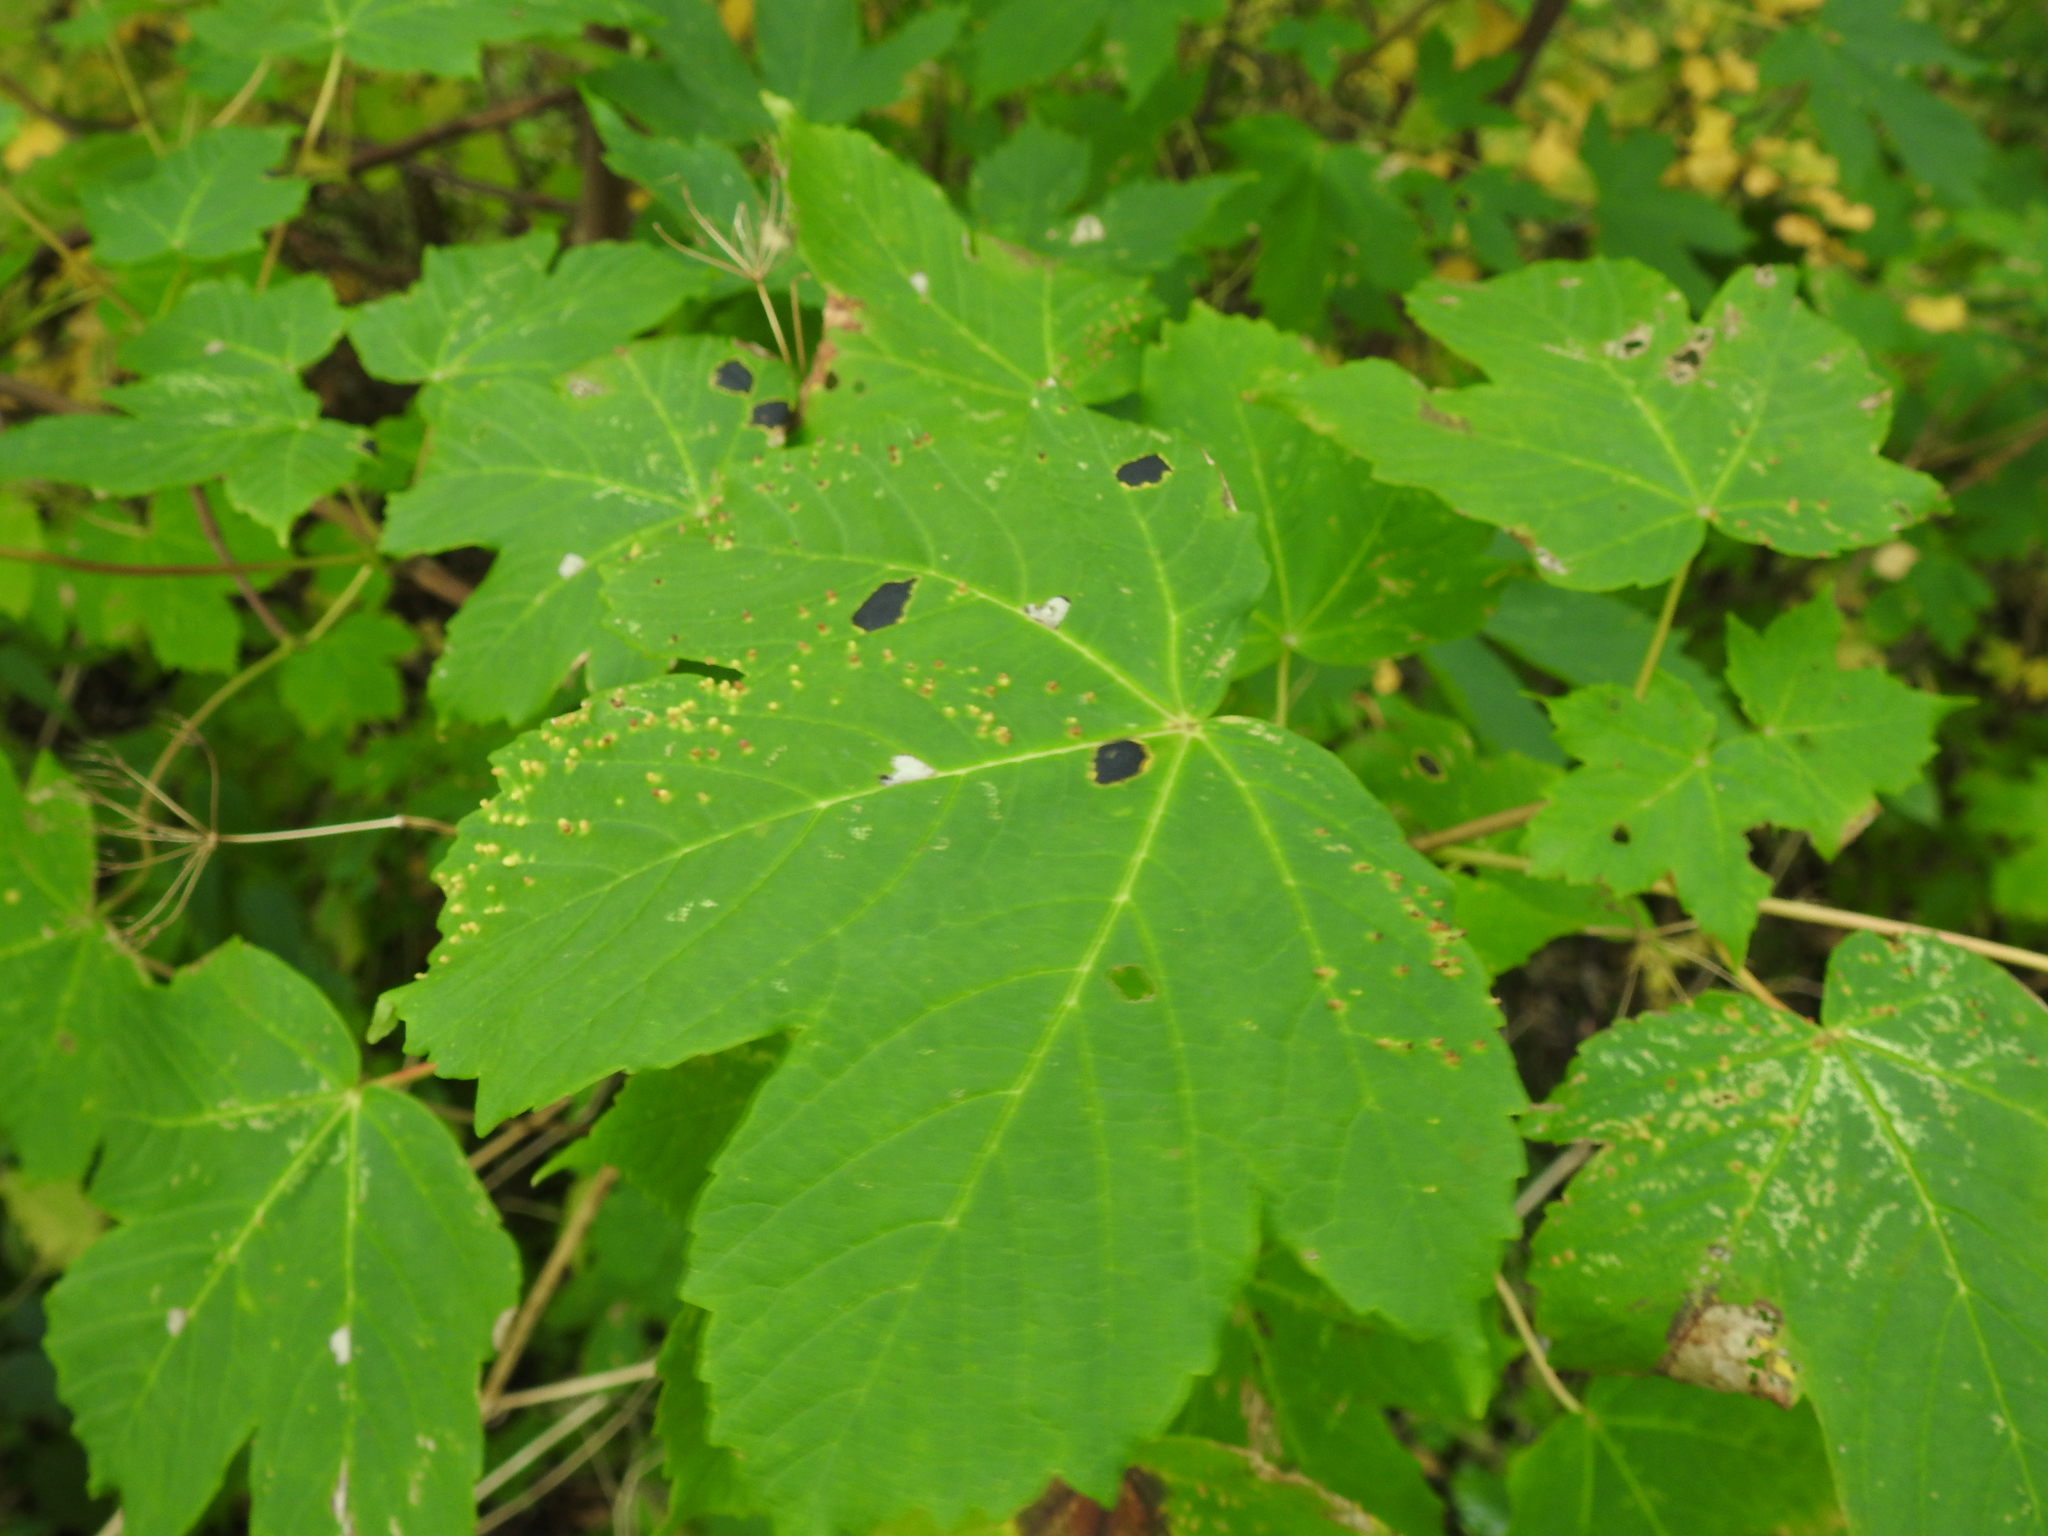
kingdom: Plantae
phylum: Tracheophyta
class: Magnoliopsida
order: Sapindales
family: Sapindaceae
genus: Acer
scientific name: Acer pseudoplatanus
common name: Sycamore
